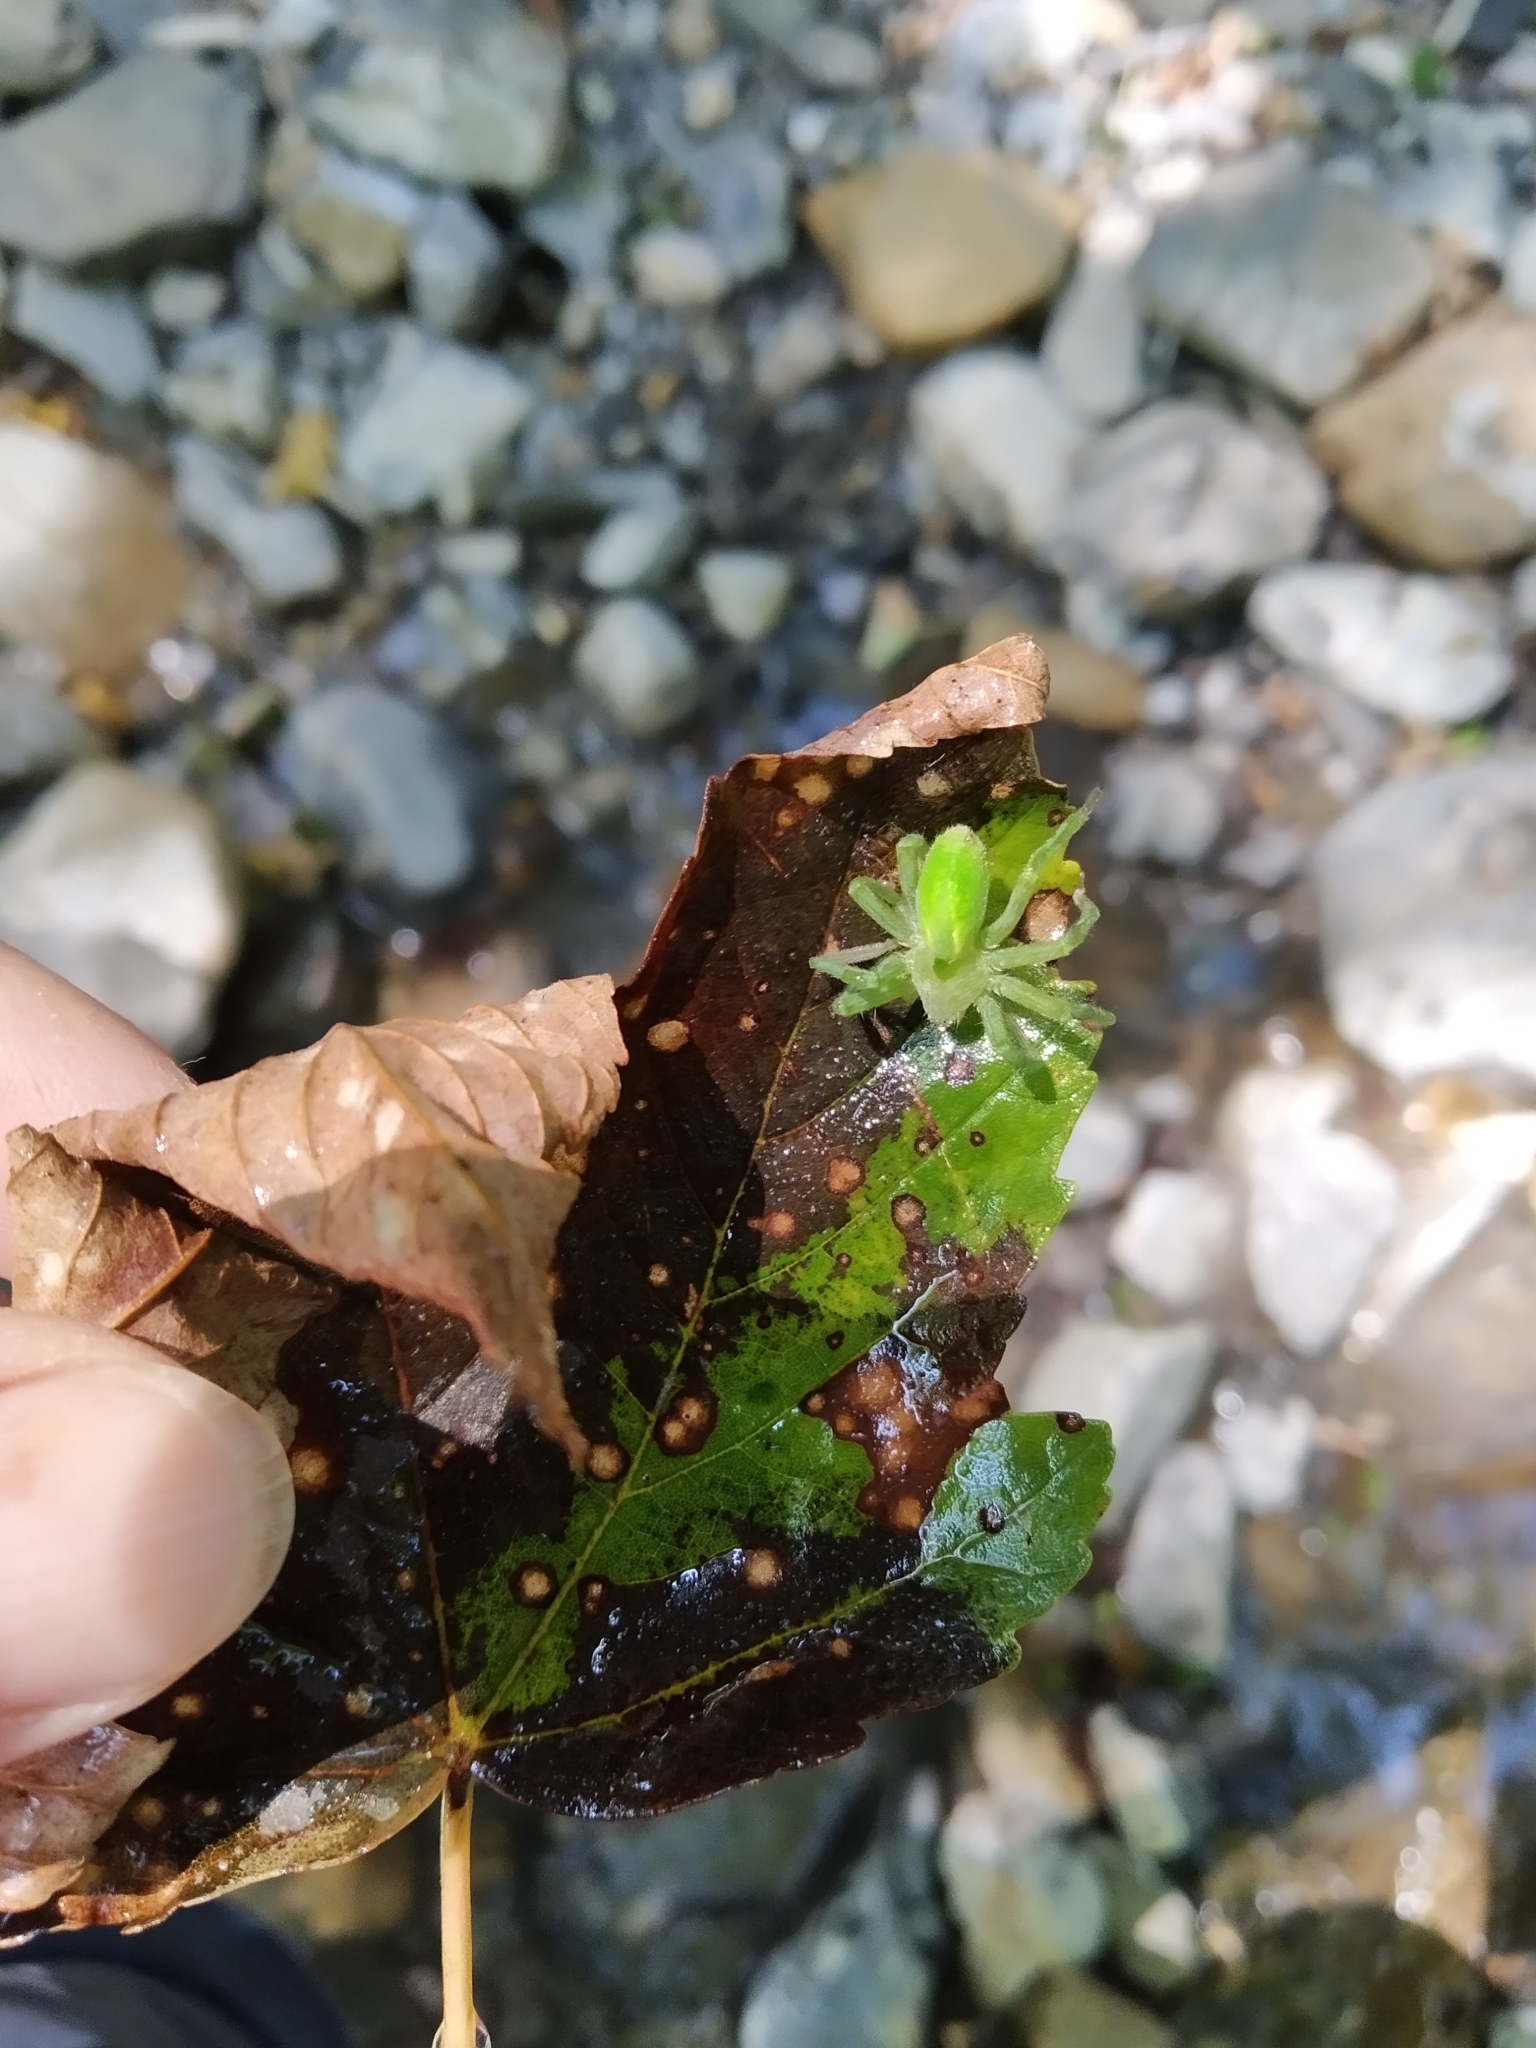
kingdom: Animalia
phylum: Arthropoda
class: Arachnida
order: Araneae
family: Sparassidae
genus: Micrommata
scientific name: Micrommata virescens
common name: Green spider
